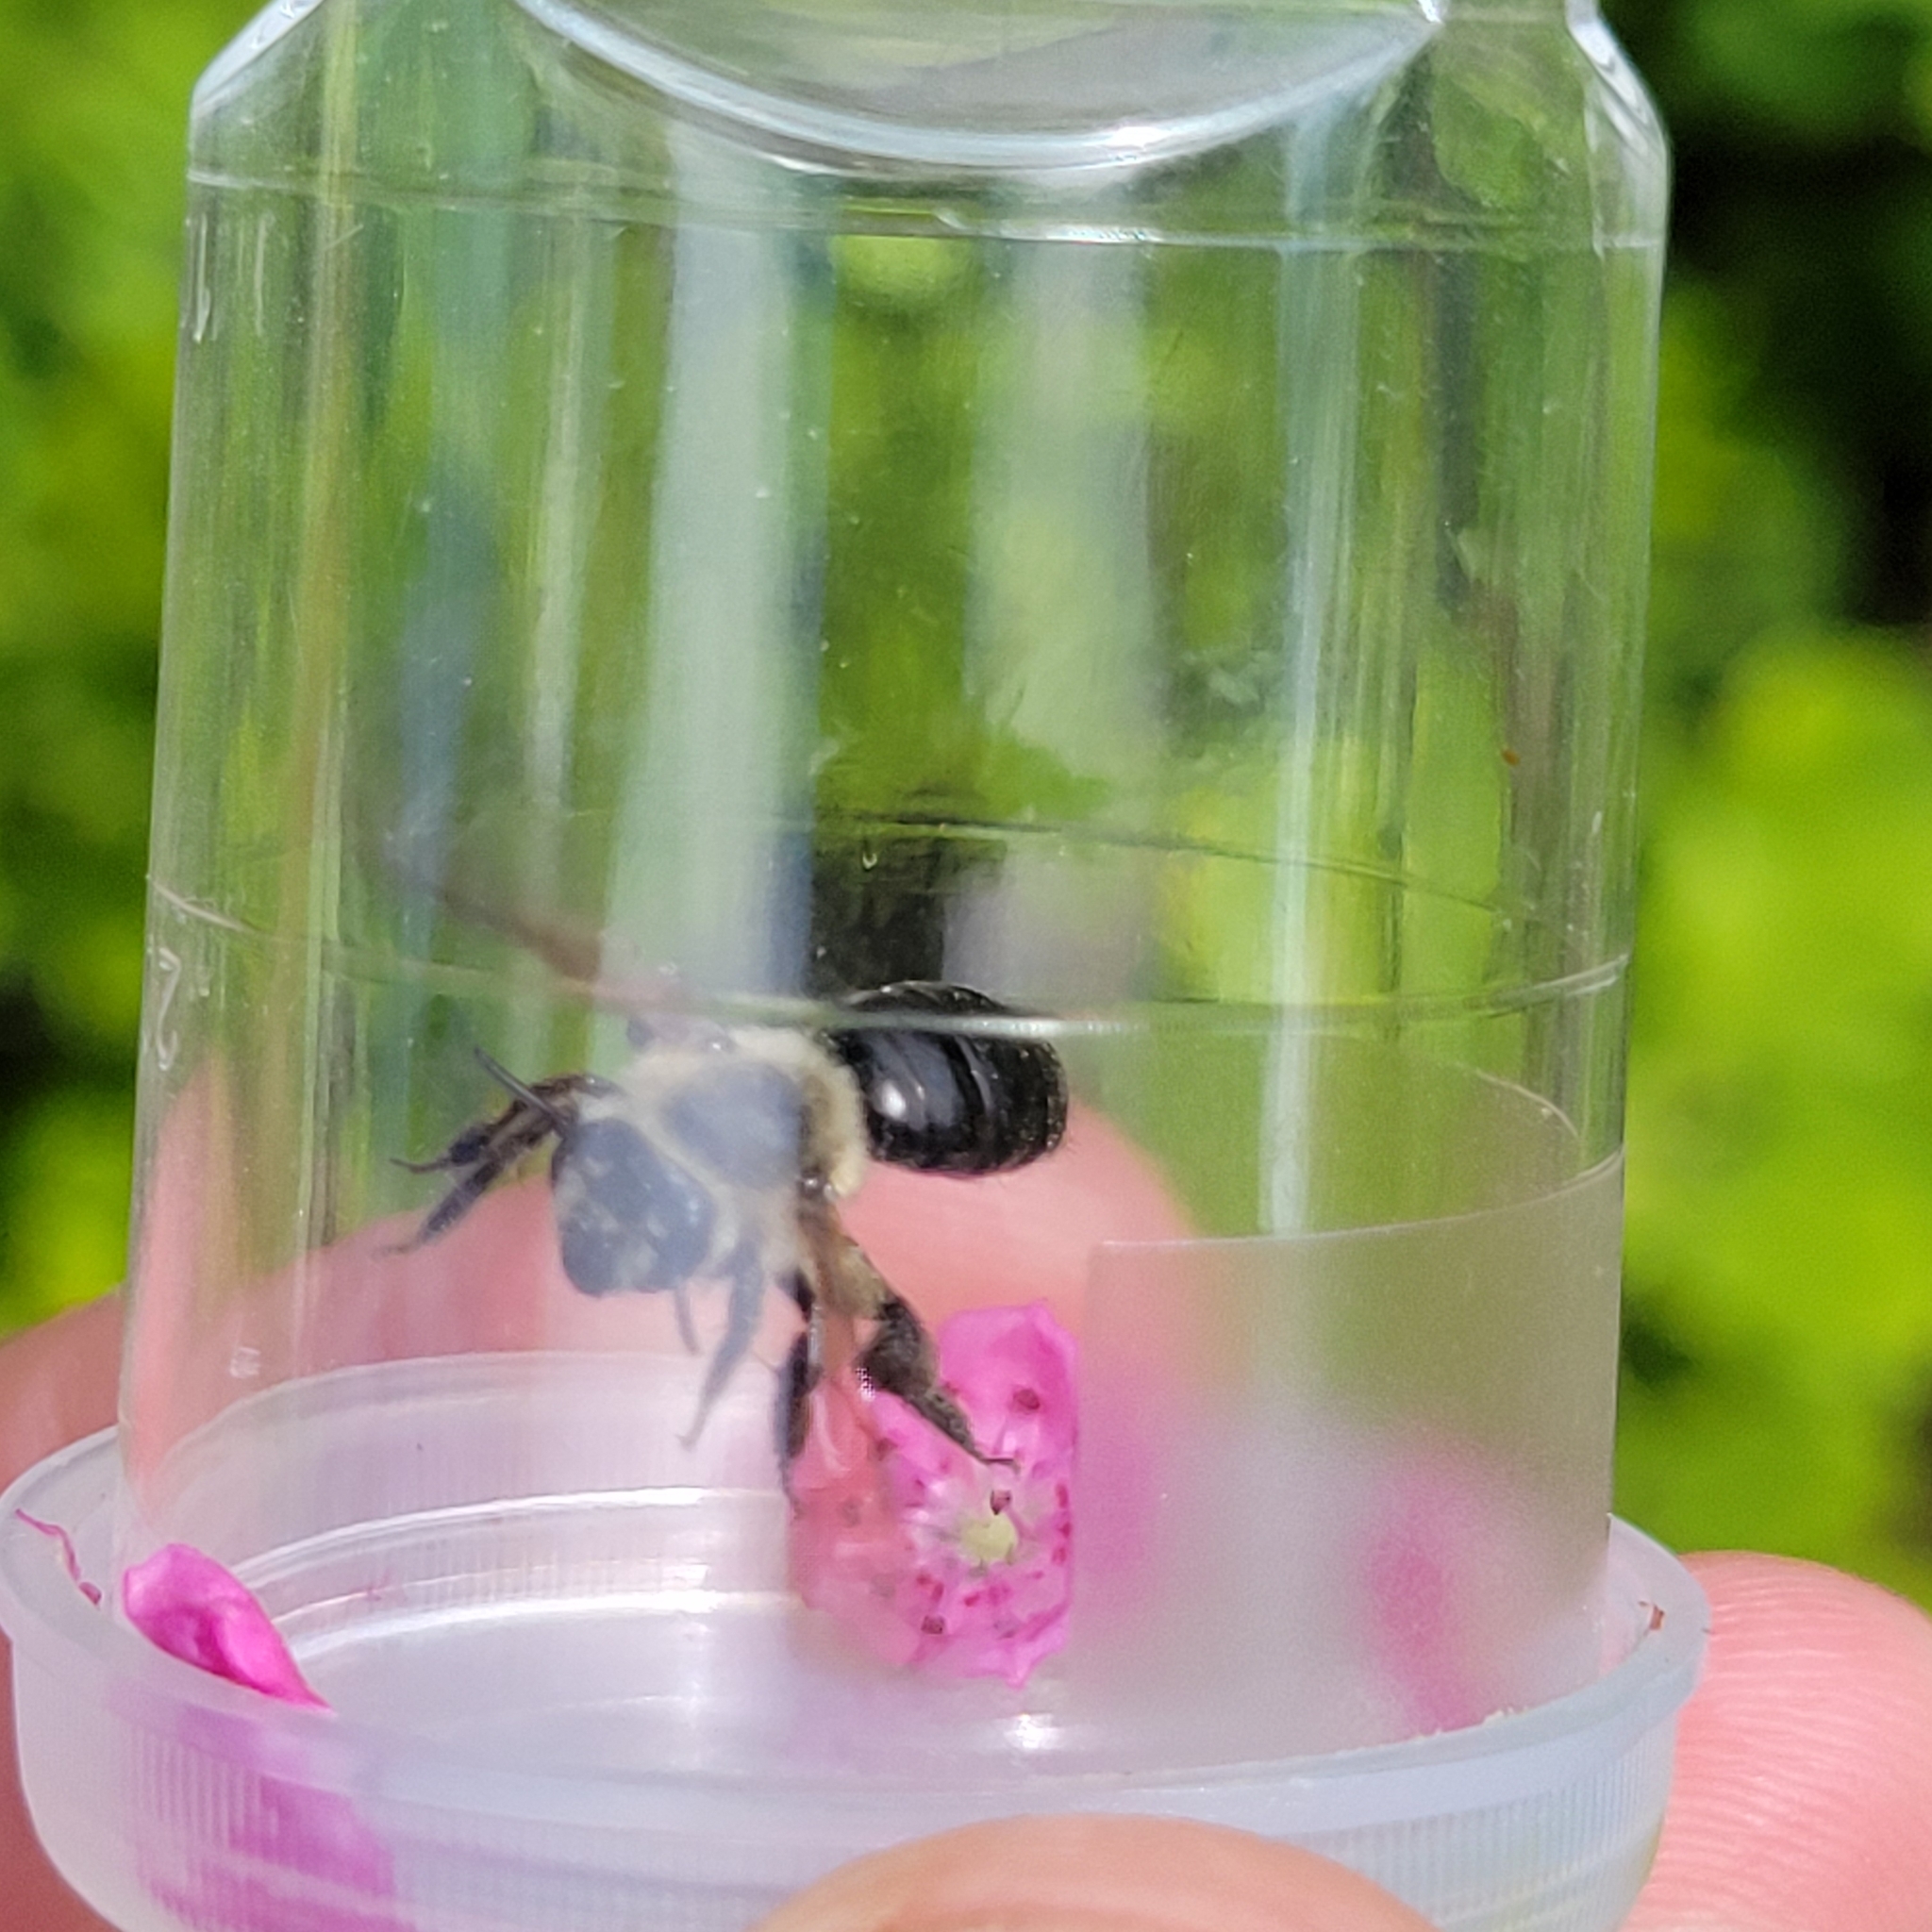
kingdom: Animalia
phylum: Arthropoda
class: Insecta
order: Hymenoptera
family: Andrenidae
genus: Andrena
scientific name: Andrena vicina
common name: Neighborly mining bee
